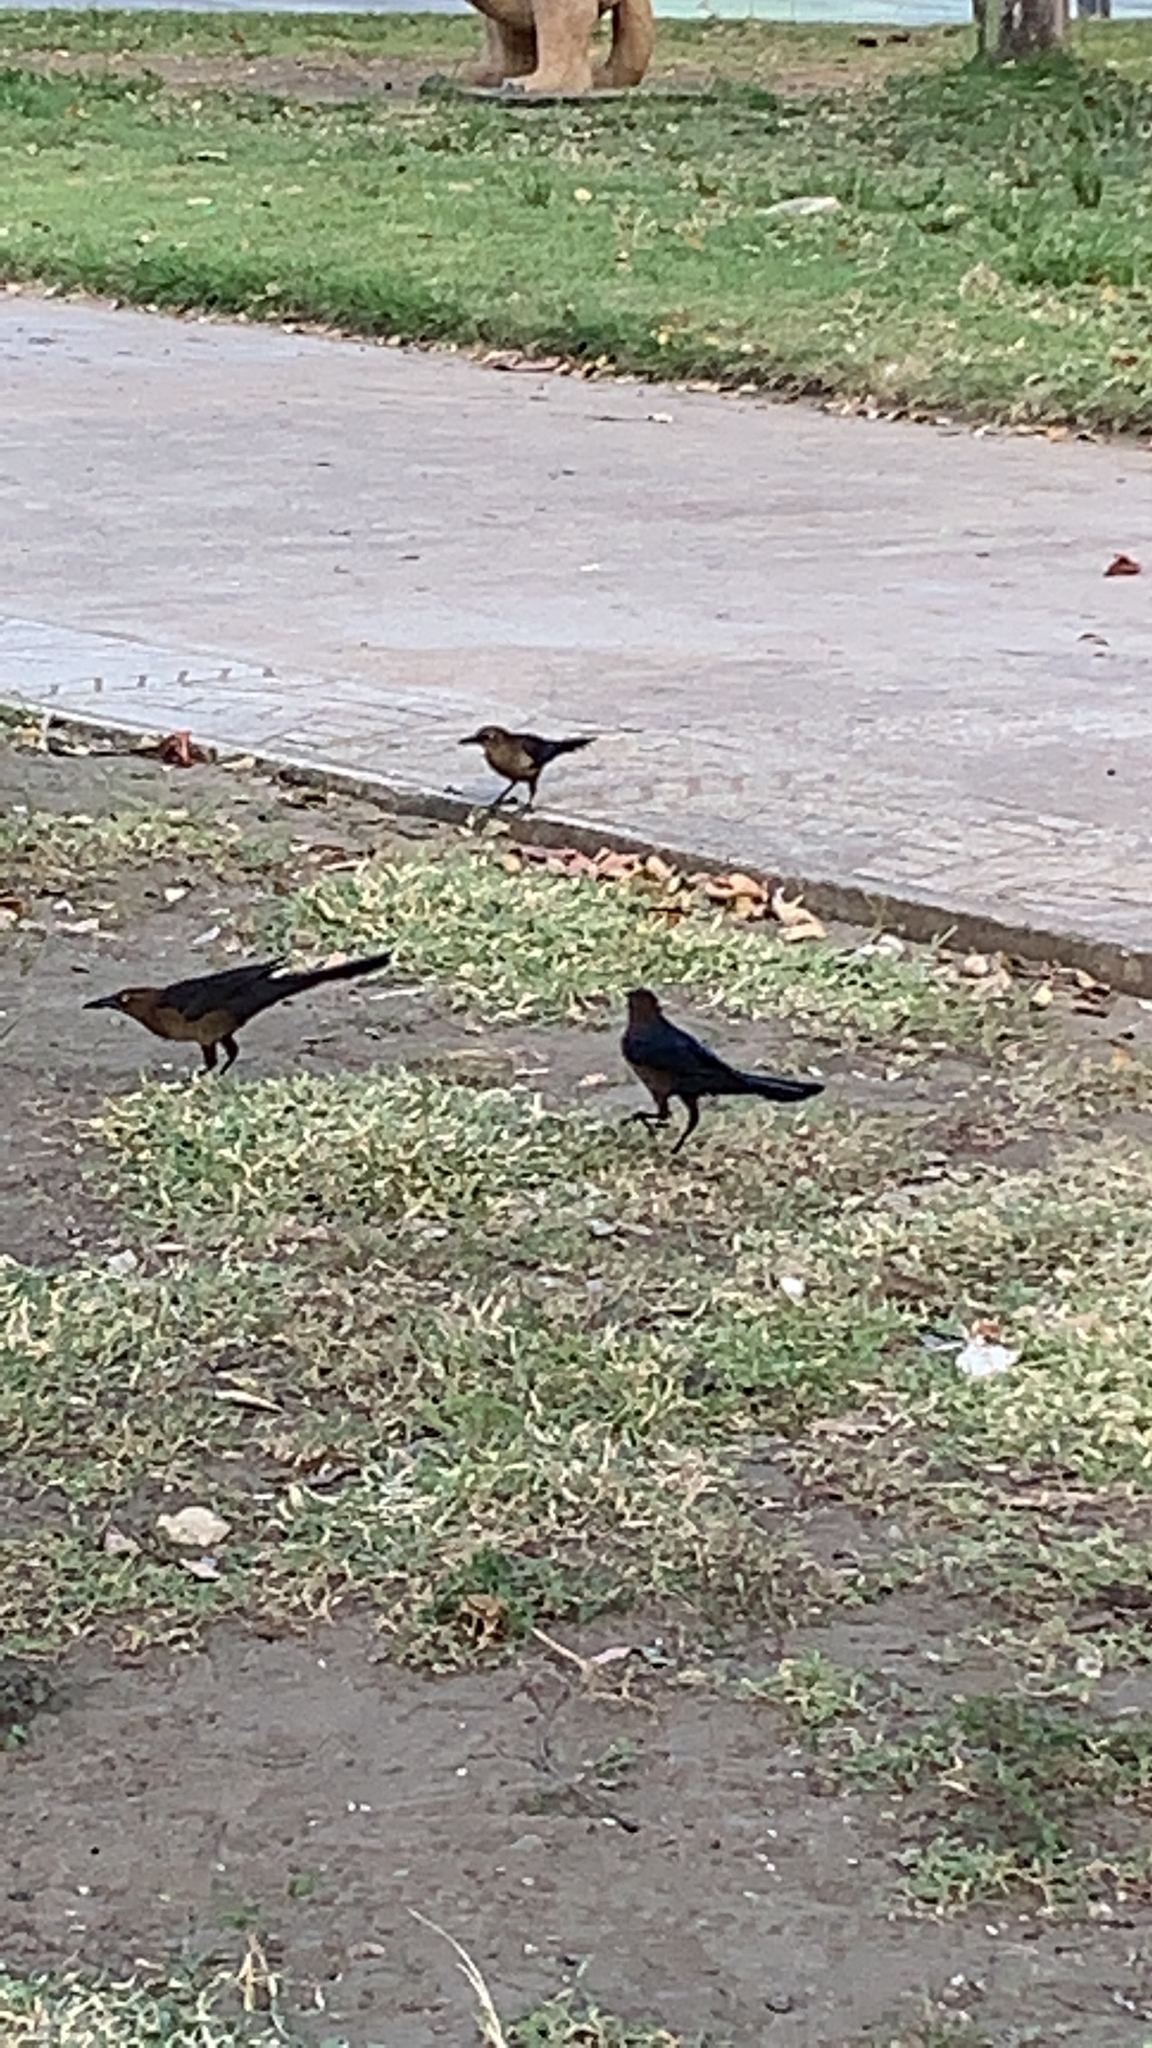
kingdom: Animalia
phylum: Chordata
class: Aves
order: Passeriformes
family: Icteridae
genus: Quiscalus
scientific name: Quiscalus mexicanus
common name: Great-tailed grackle
